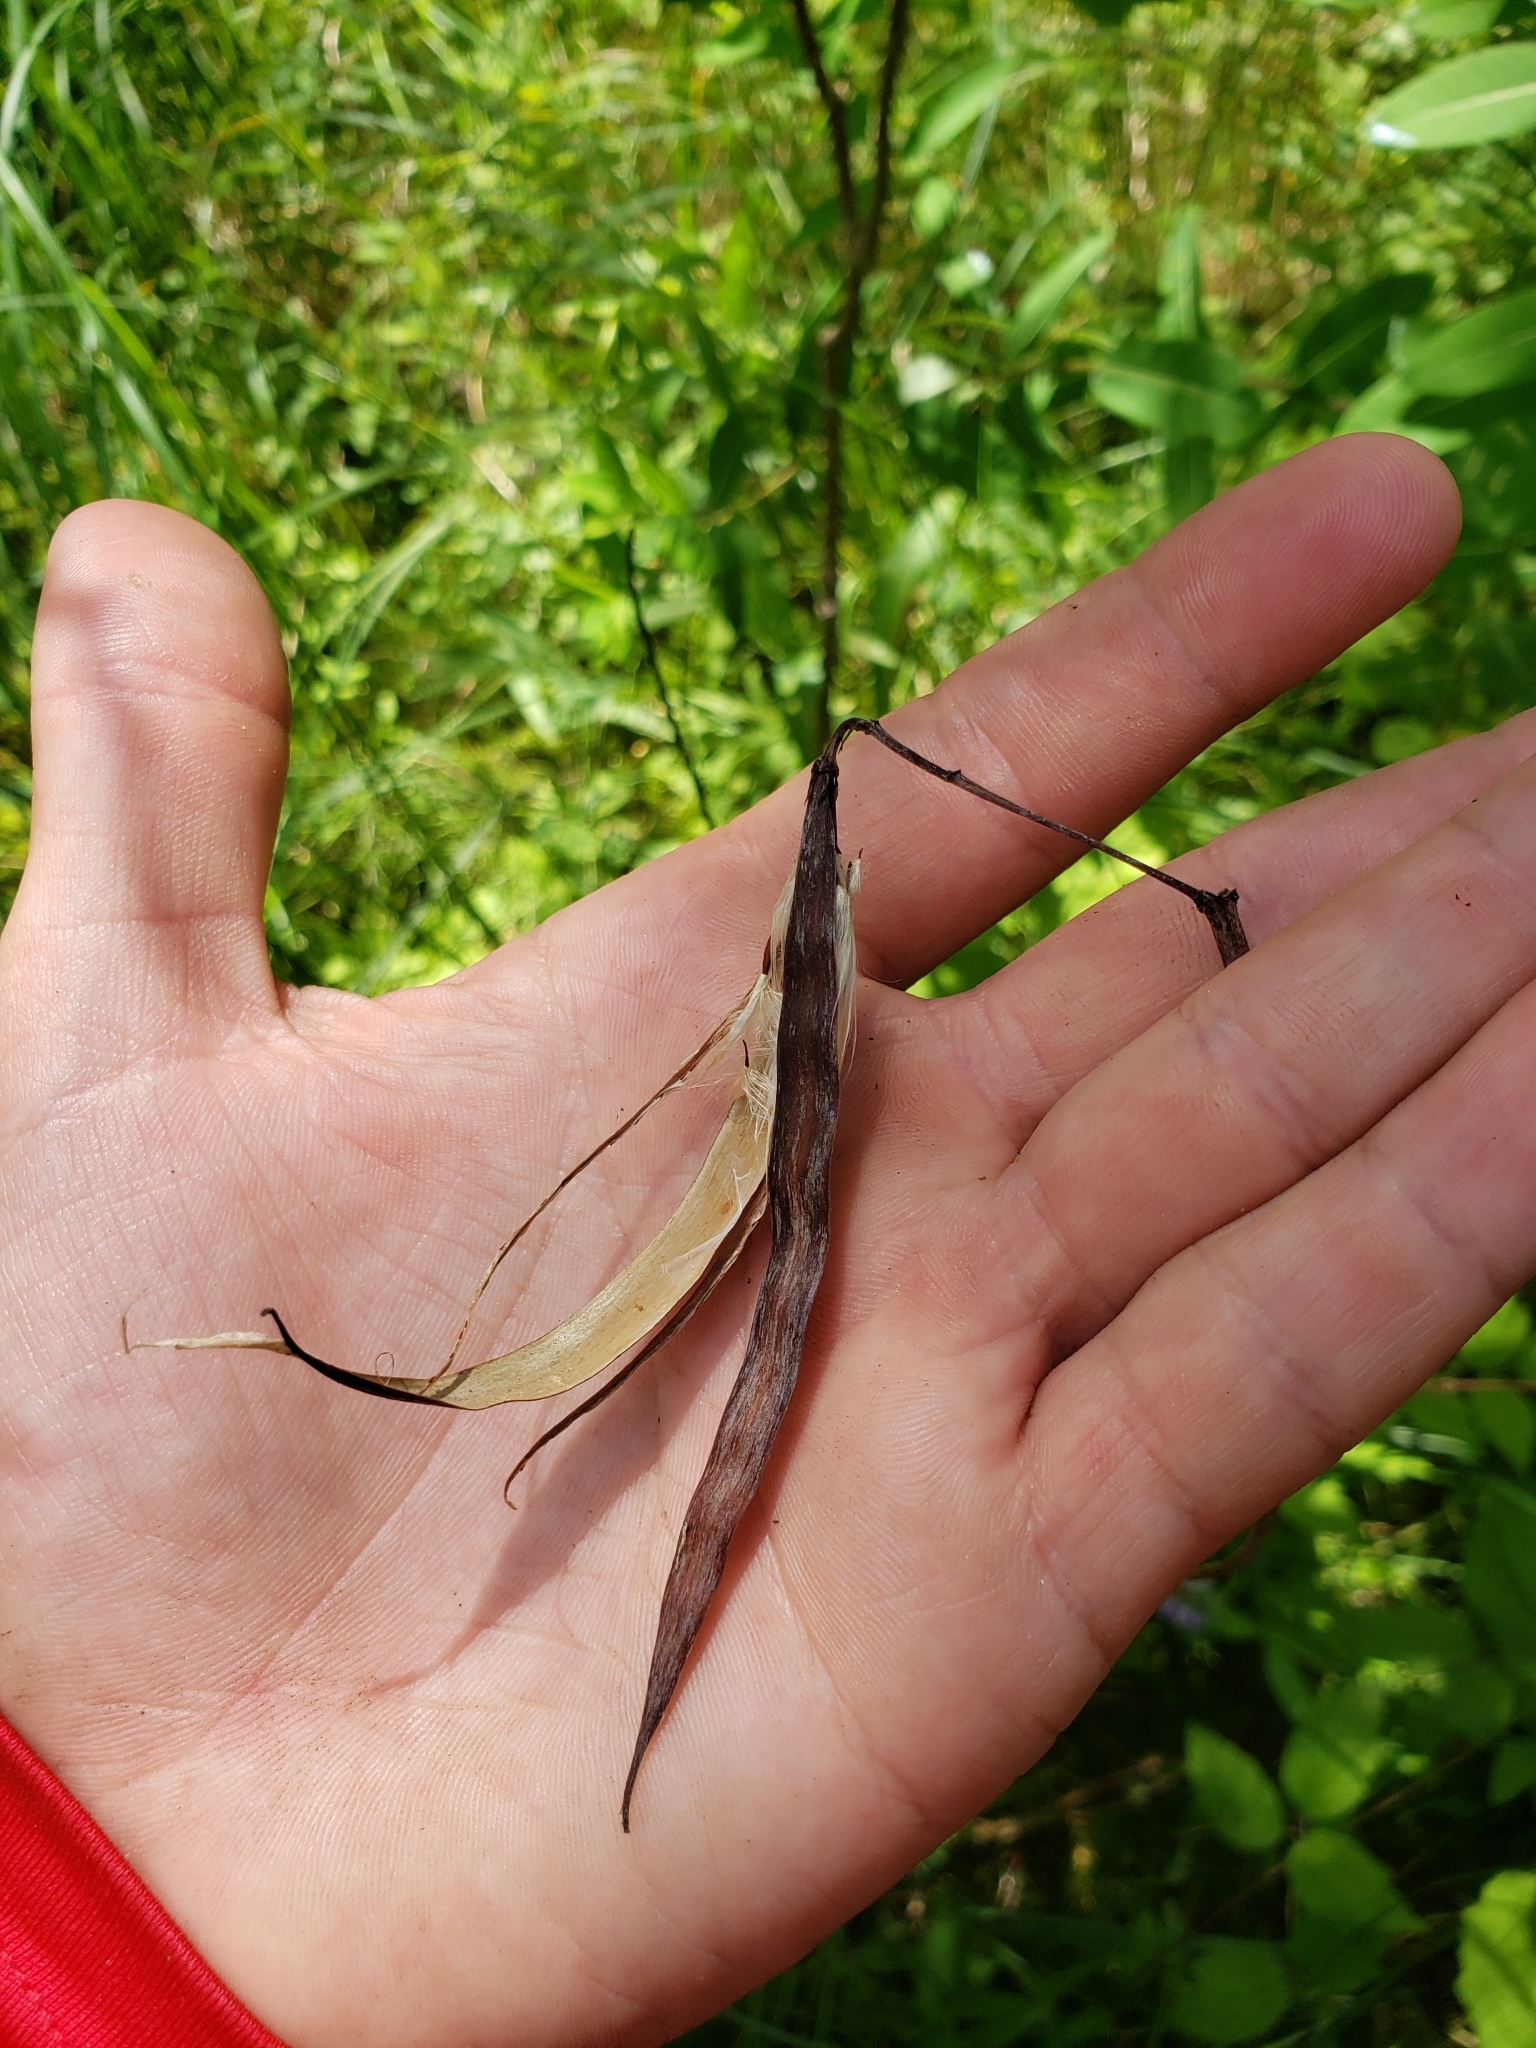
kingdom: Plantae
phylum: Tracheophyta
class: Magnoliopsida
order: Fabales
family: Fabaceae
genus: Lathyrus
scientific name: Lathyrus palustris
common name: Marsh pea
